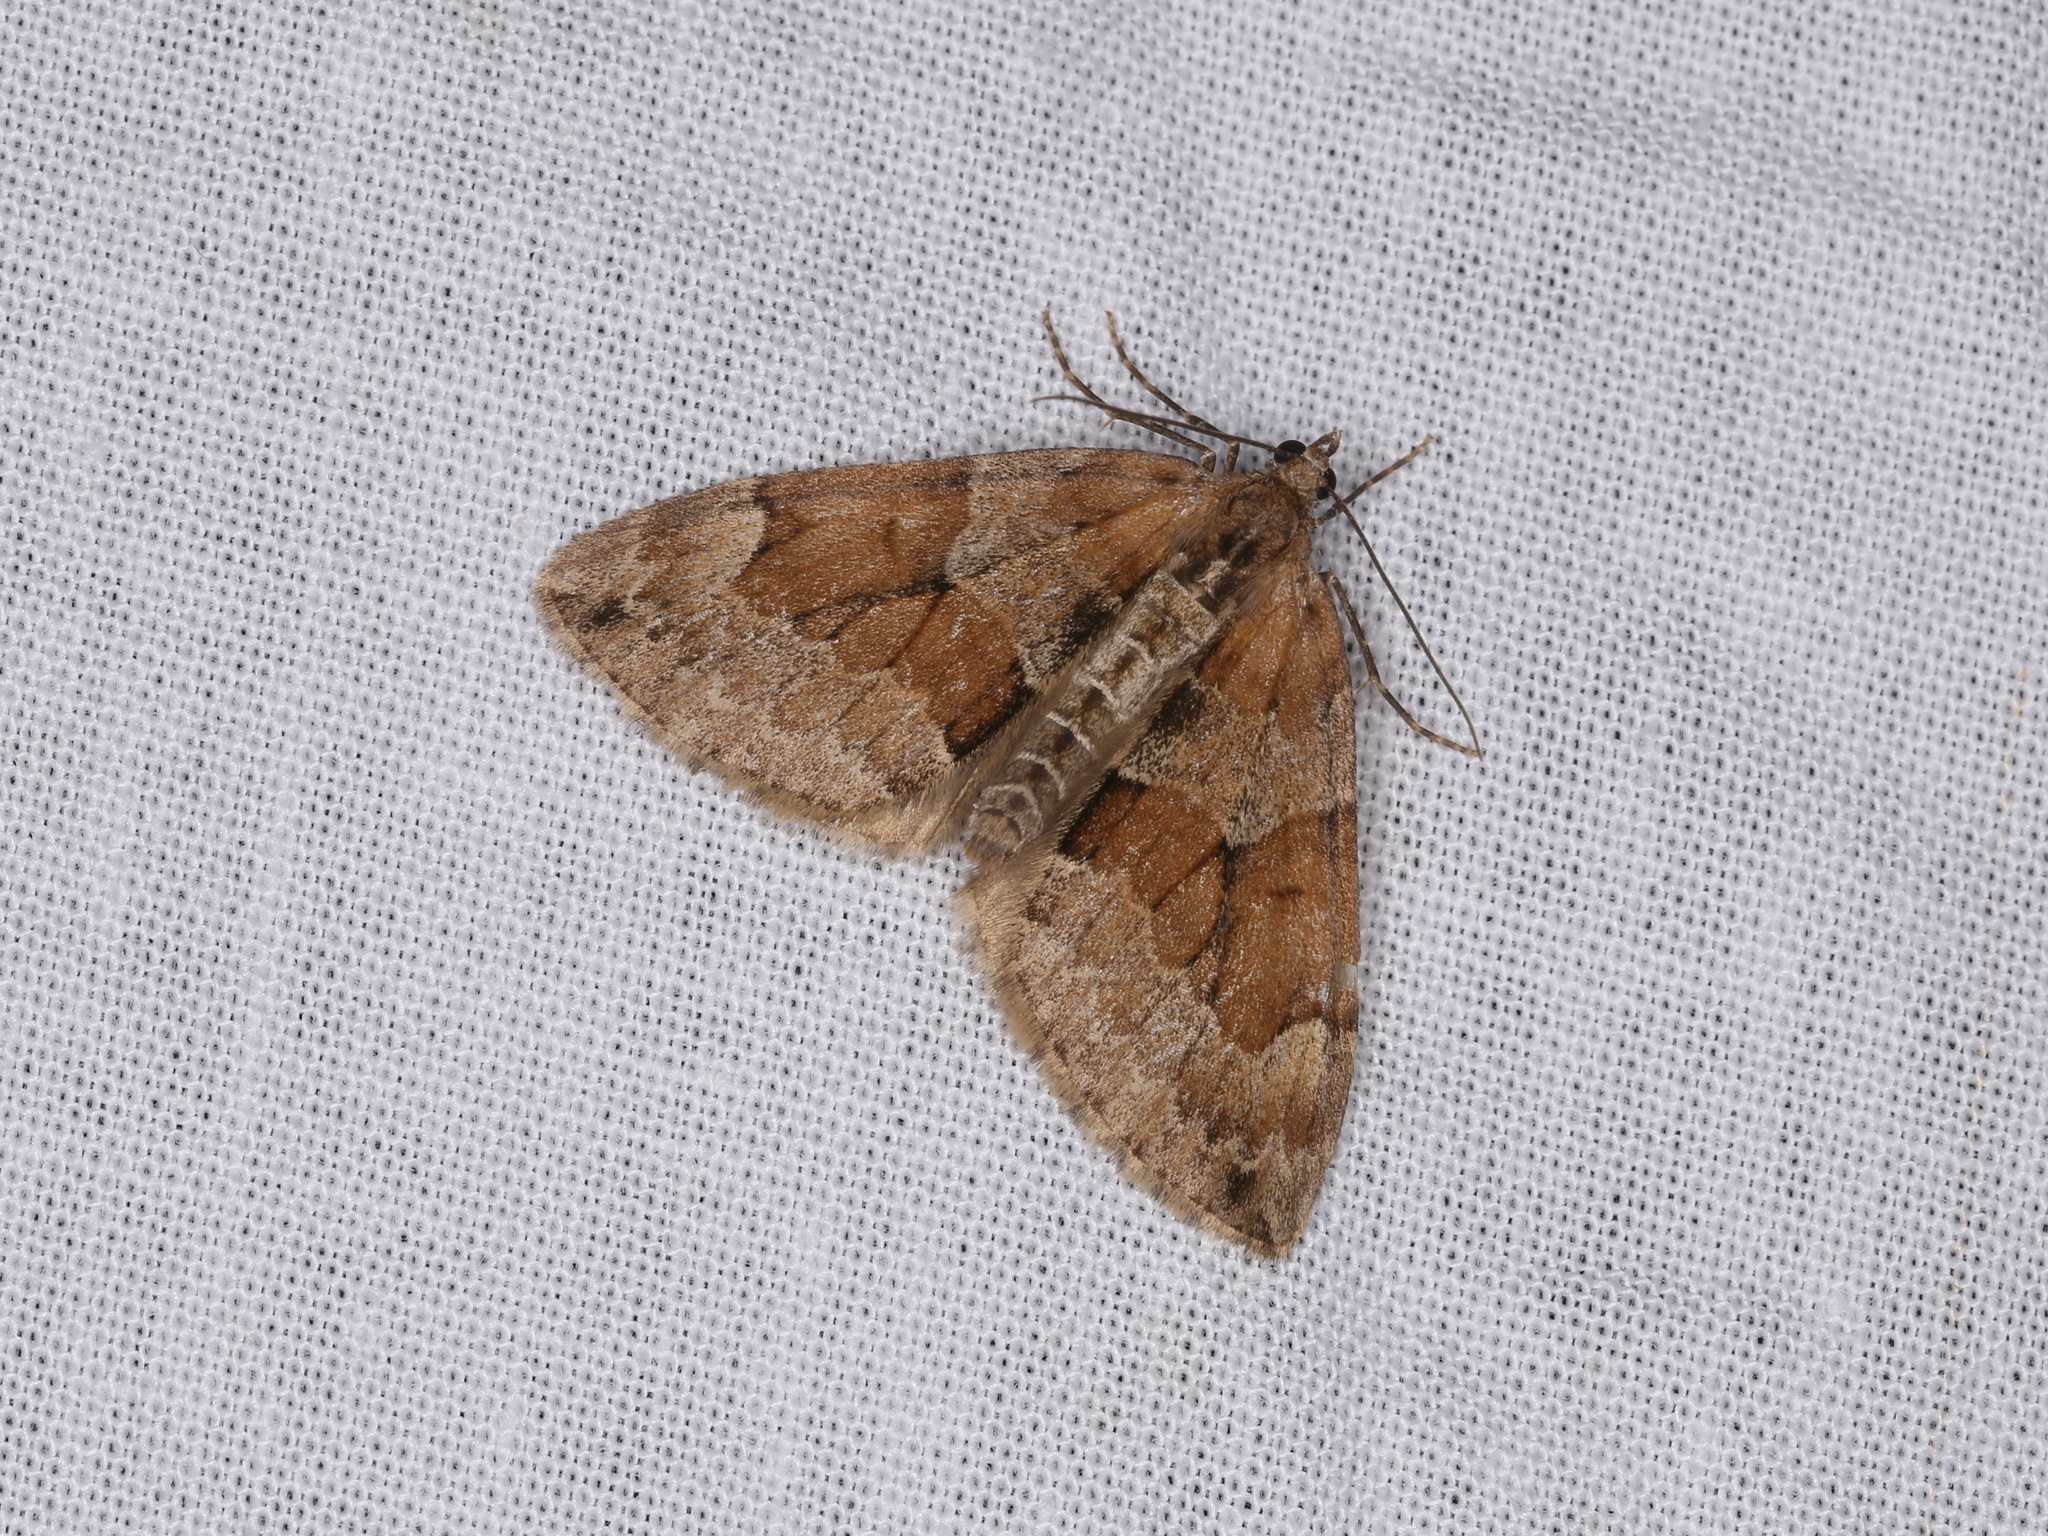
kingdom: Animalia
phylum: Arthropoda
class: Insecta
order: Lepidoptera
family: Geometridae
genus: Thera
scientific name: Thera obeliscata
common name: Grey pine carpet
